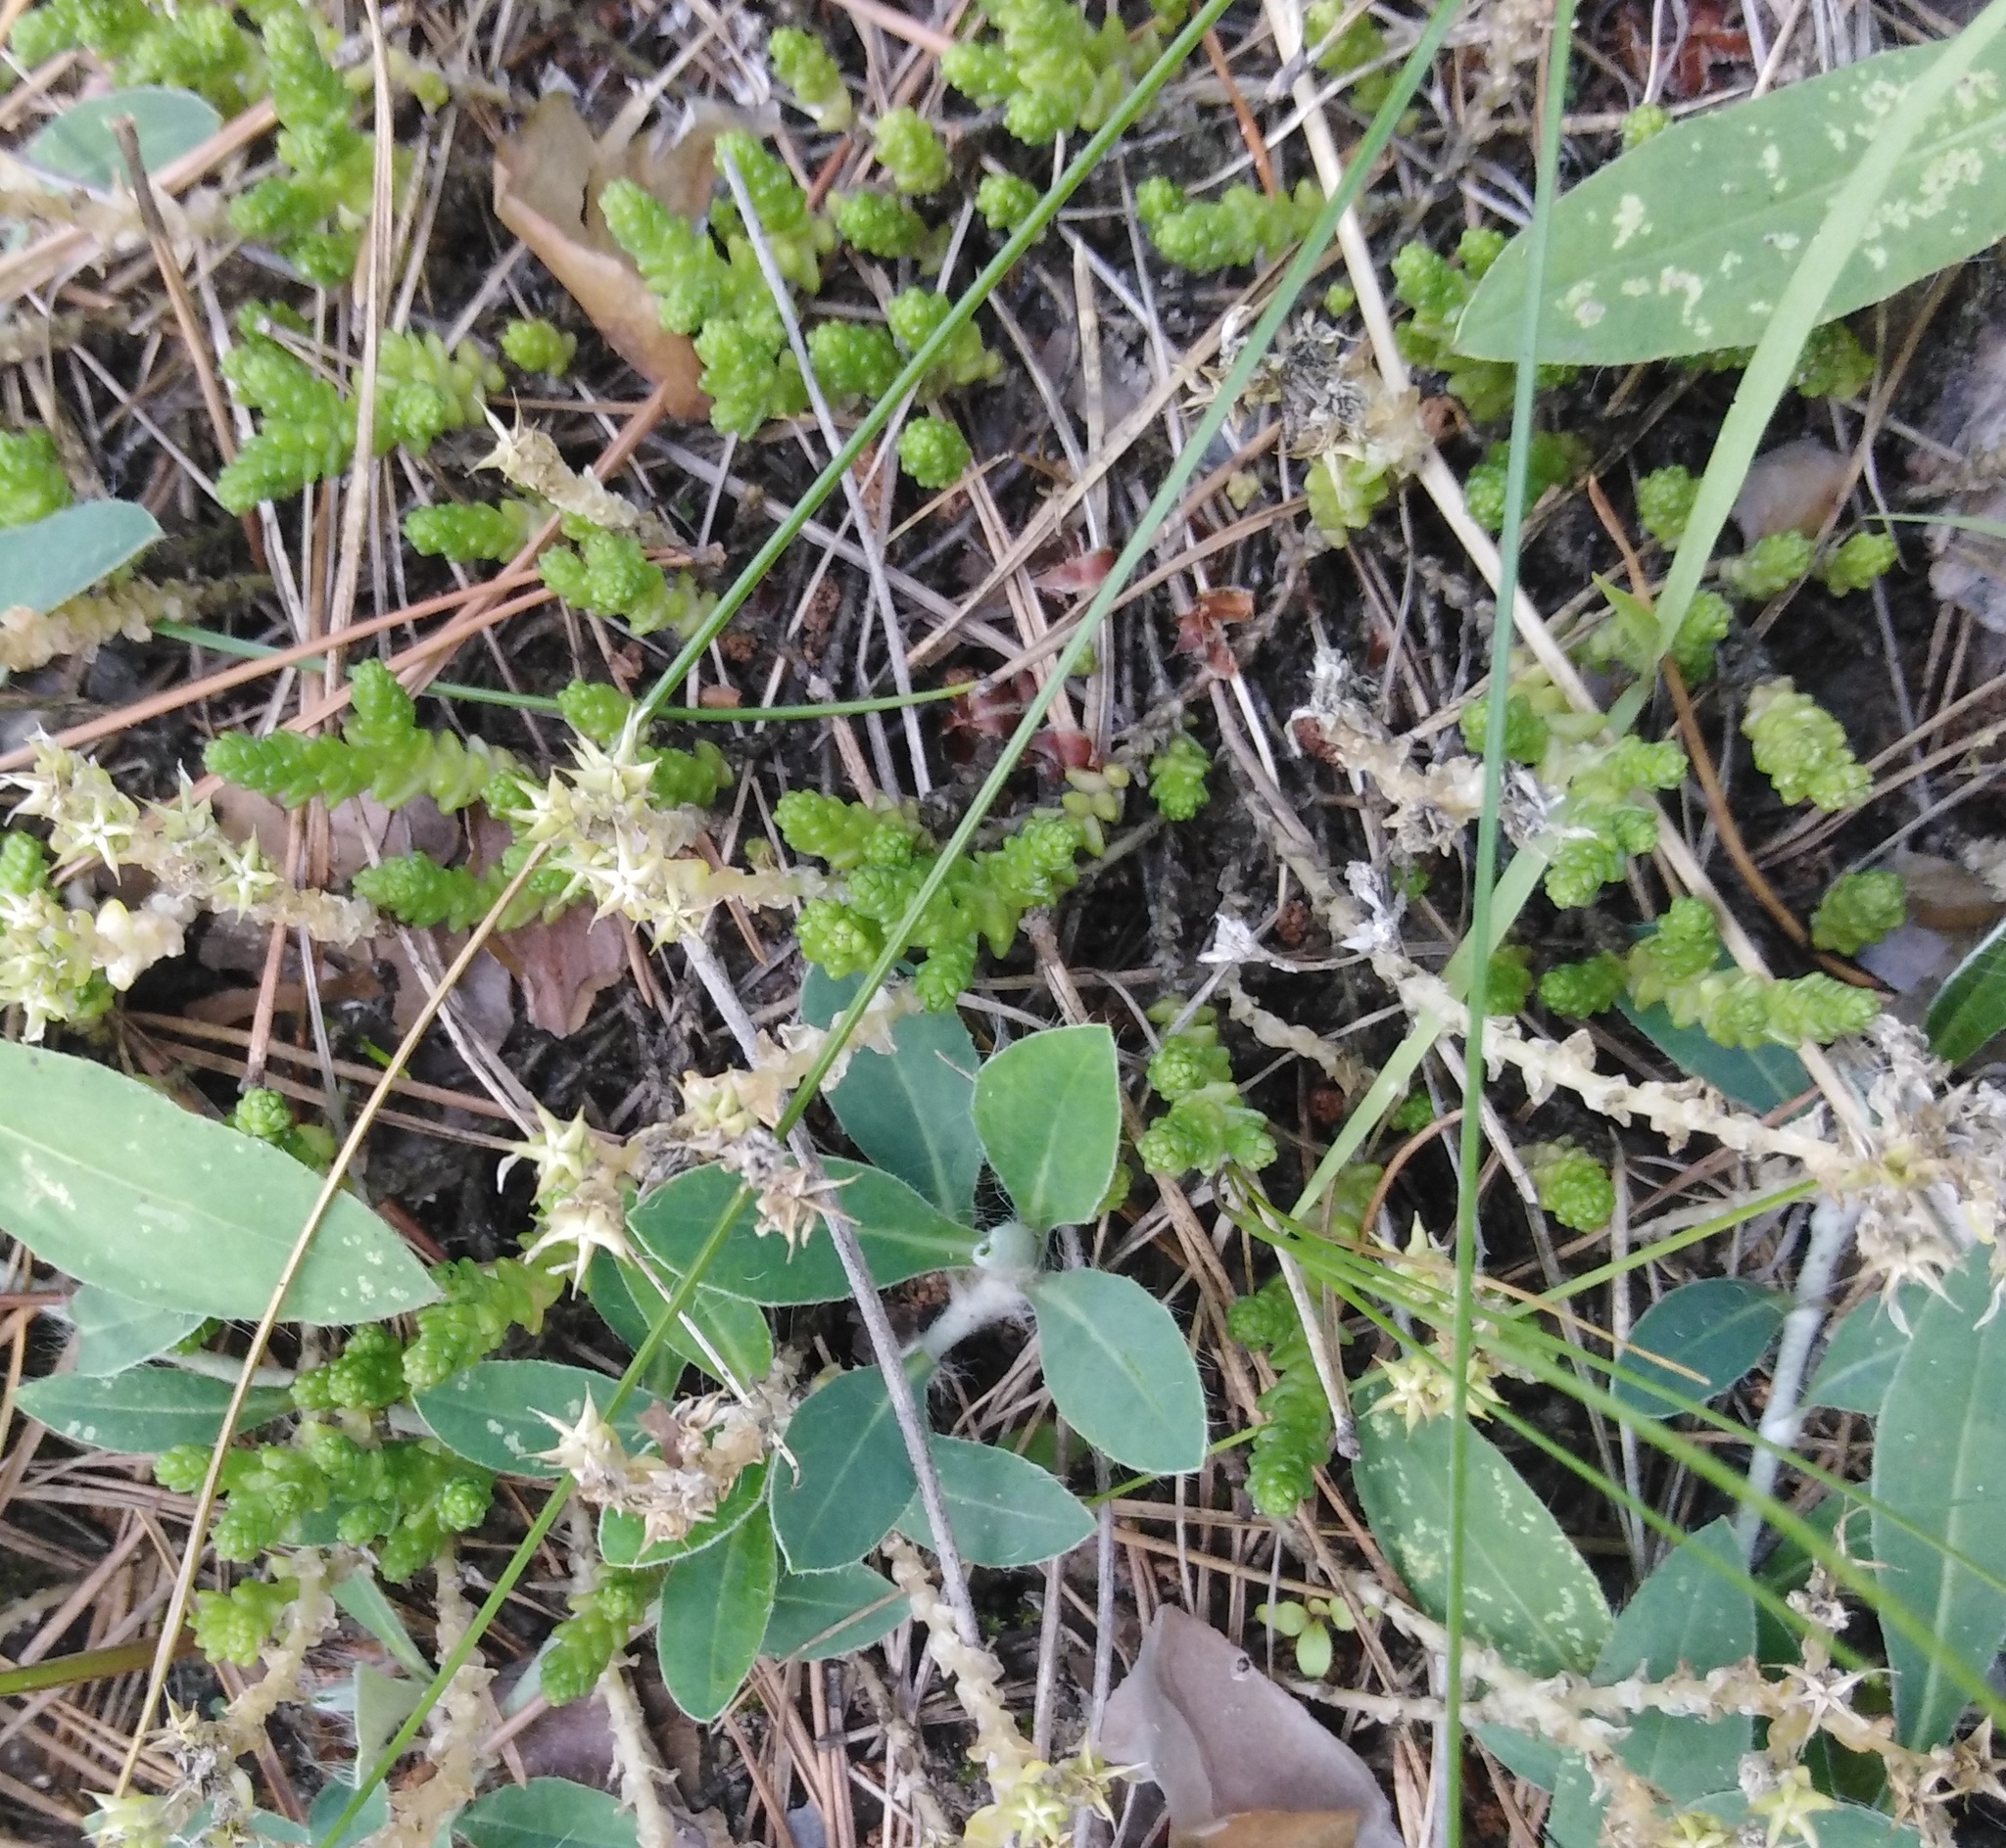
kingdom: Plantae
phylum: Tracheophyta
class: Magnoliopsida
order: Saxifragales
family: Crassulaceae
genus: Sedum
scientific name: Sedum acre
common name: Biting stonecrop
